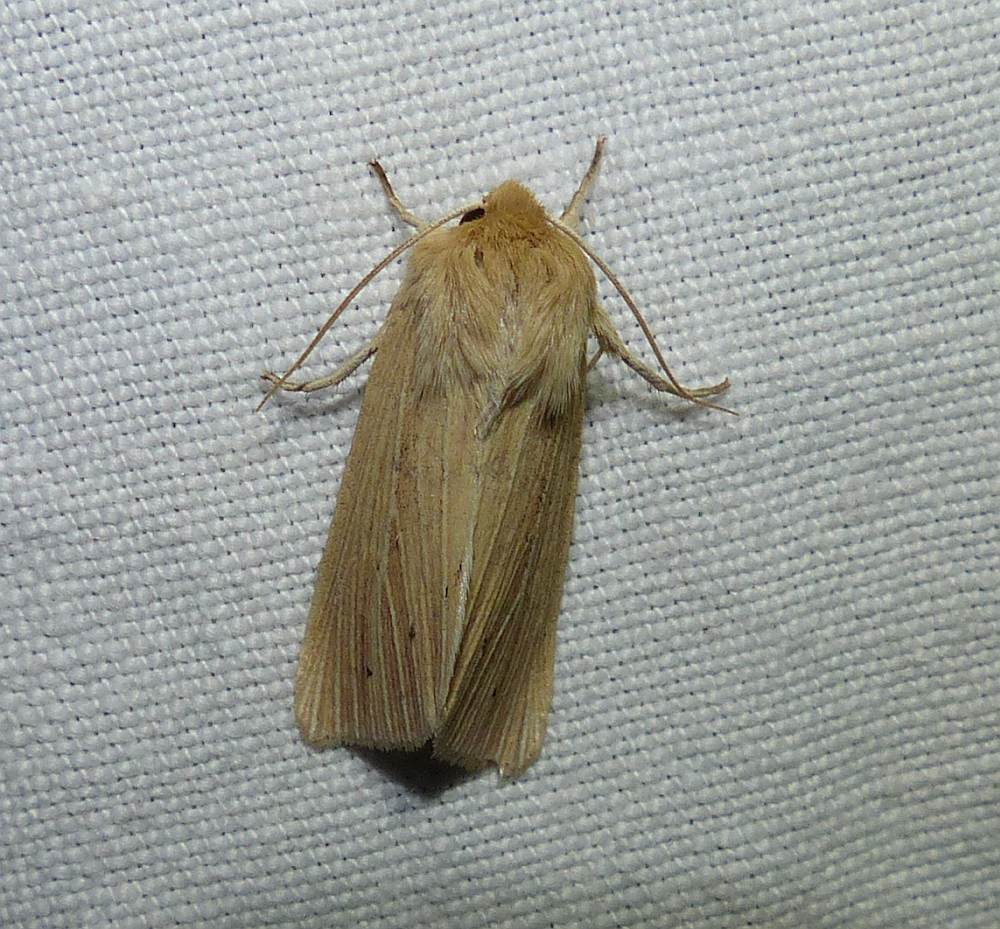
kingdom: Animalia
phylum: Arthropoda
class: Insecta
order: Lepidoptera
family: Noctuidae
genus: Mythimna
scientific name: Mythimna oxygala
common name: Lesser wainscot
